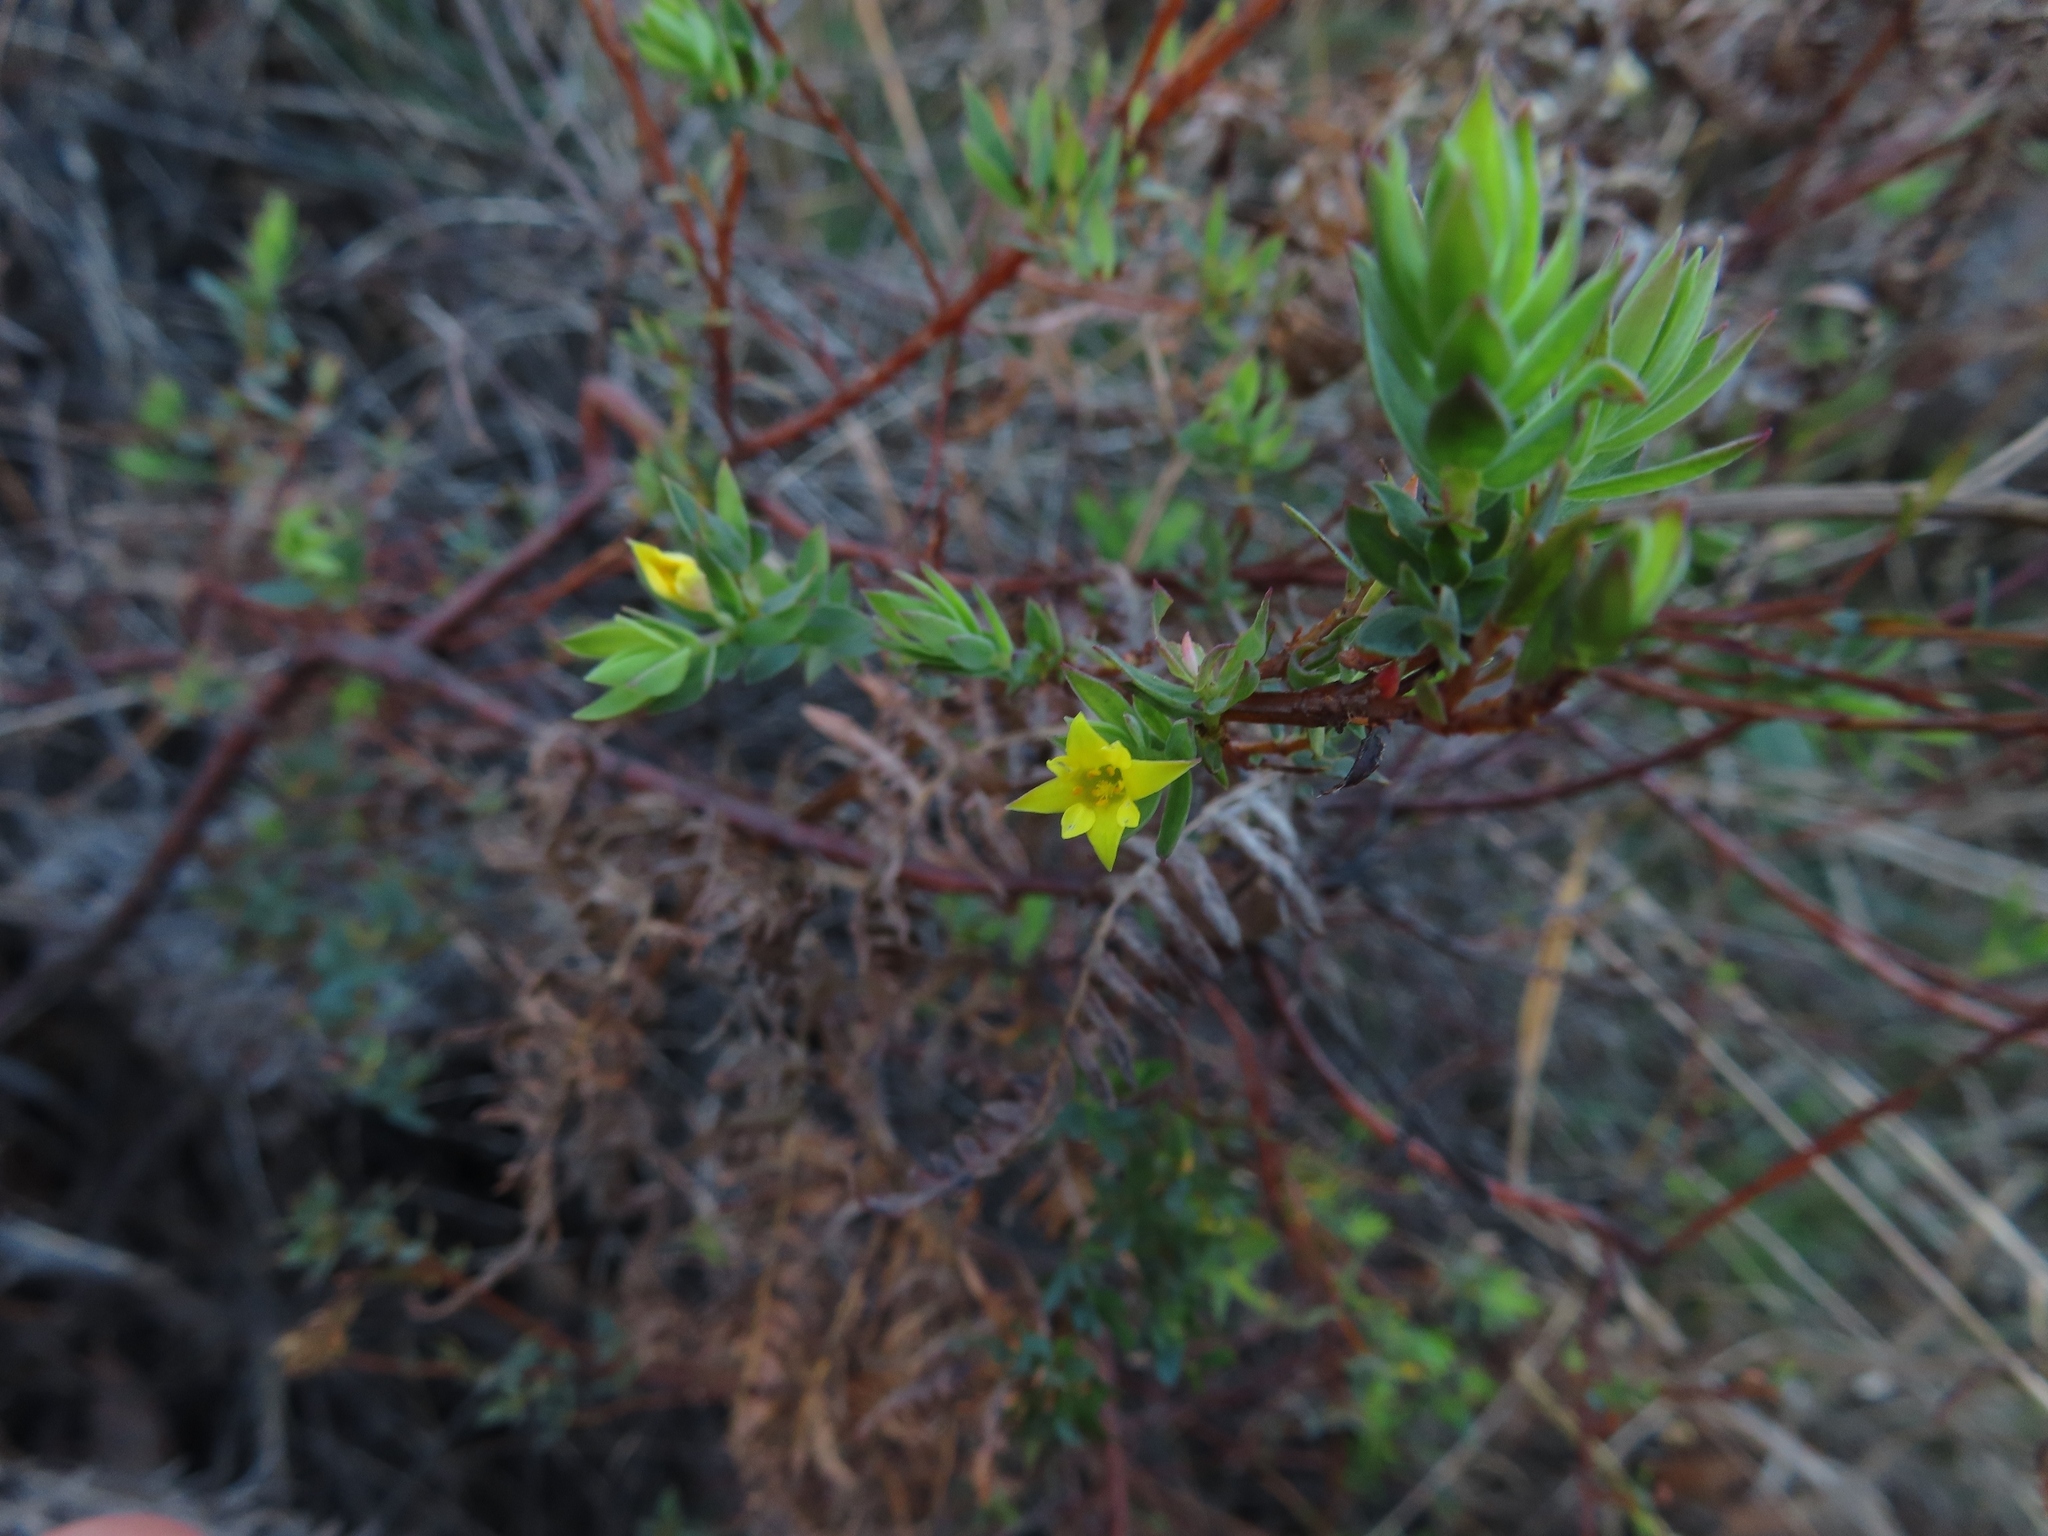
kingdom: Plantae
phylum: Tracheophyta
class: Magnoliopsida
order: Malvales
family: Thymelaeaceae
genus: Gnidia
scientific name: Gnidia juniperifolia
